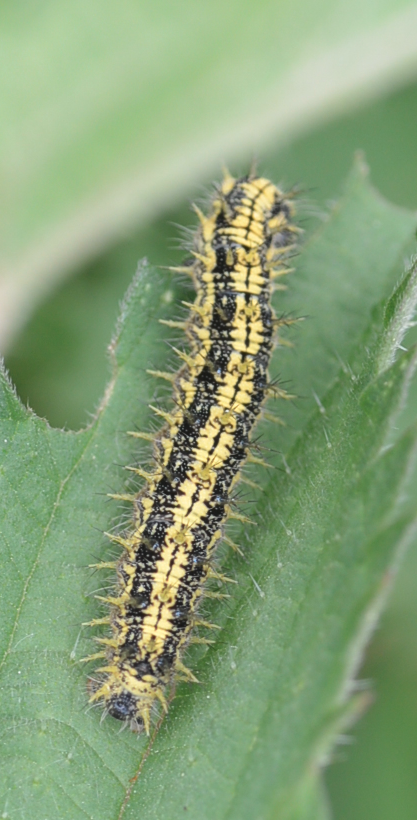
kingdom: Animalia
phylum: Arthropoda
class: Insecta
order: Lepidoptera
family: Nymphalidae
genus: Aglais
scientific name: Aglais urticae
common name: Small tortoiseshell
